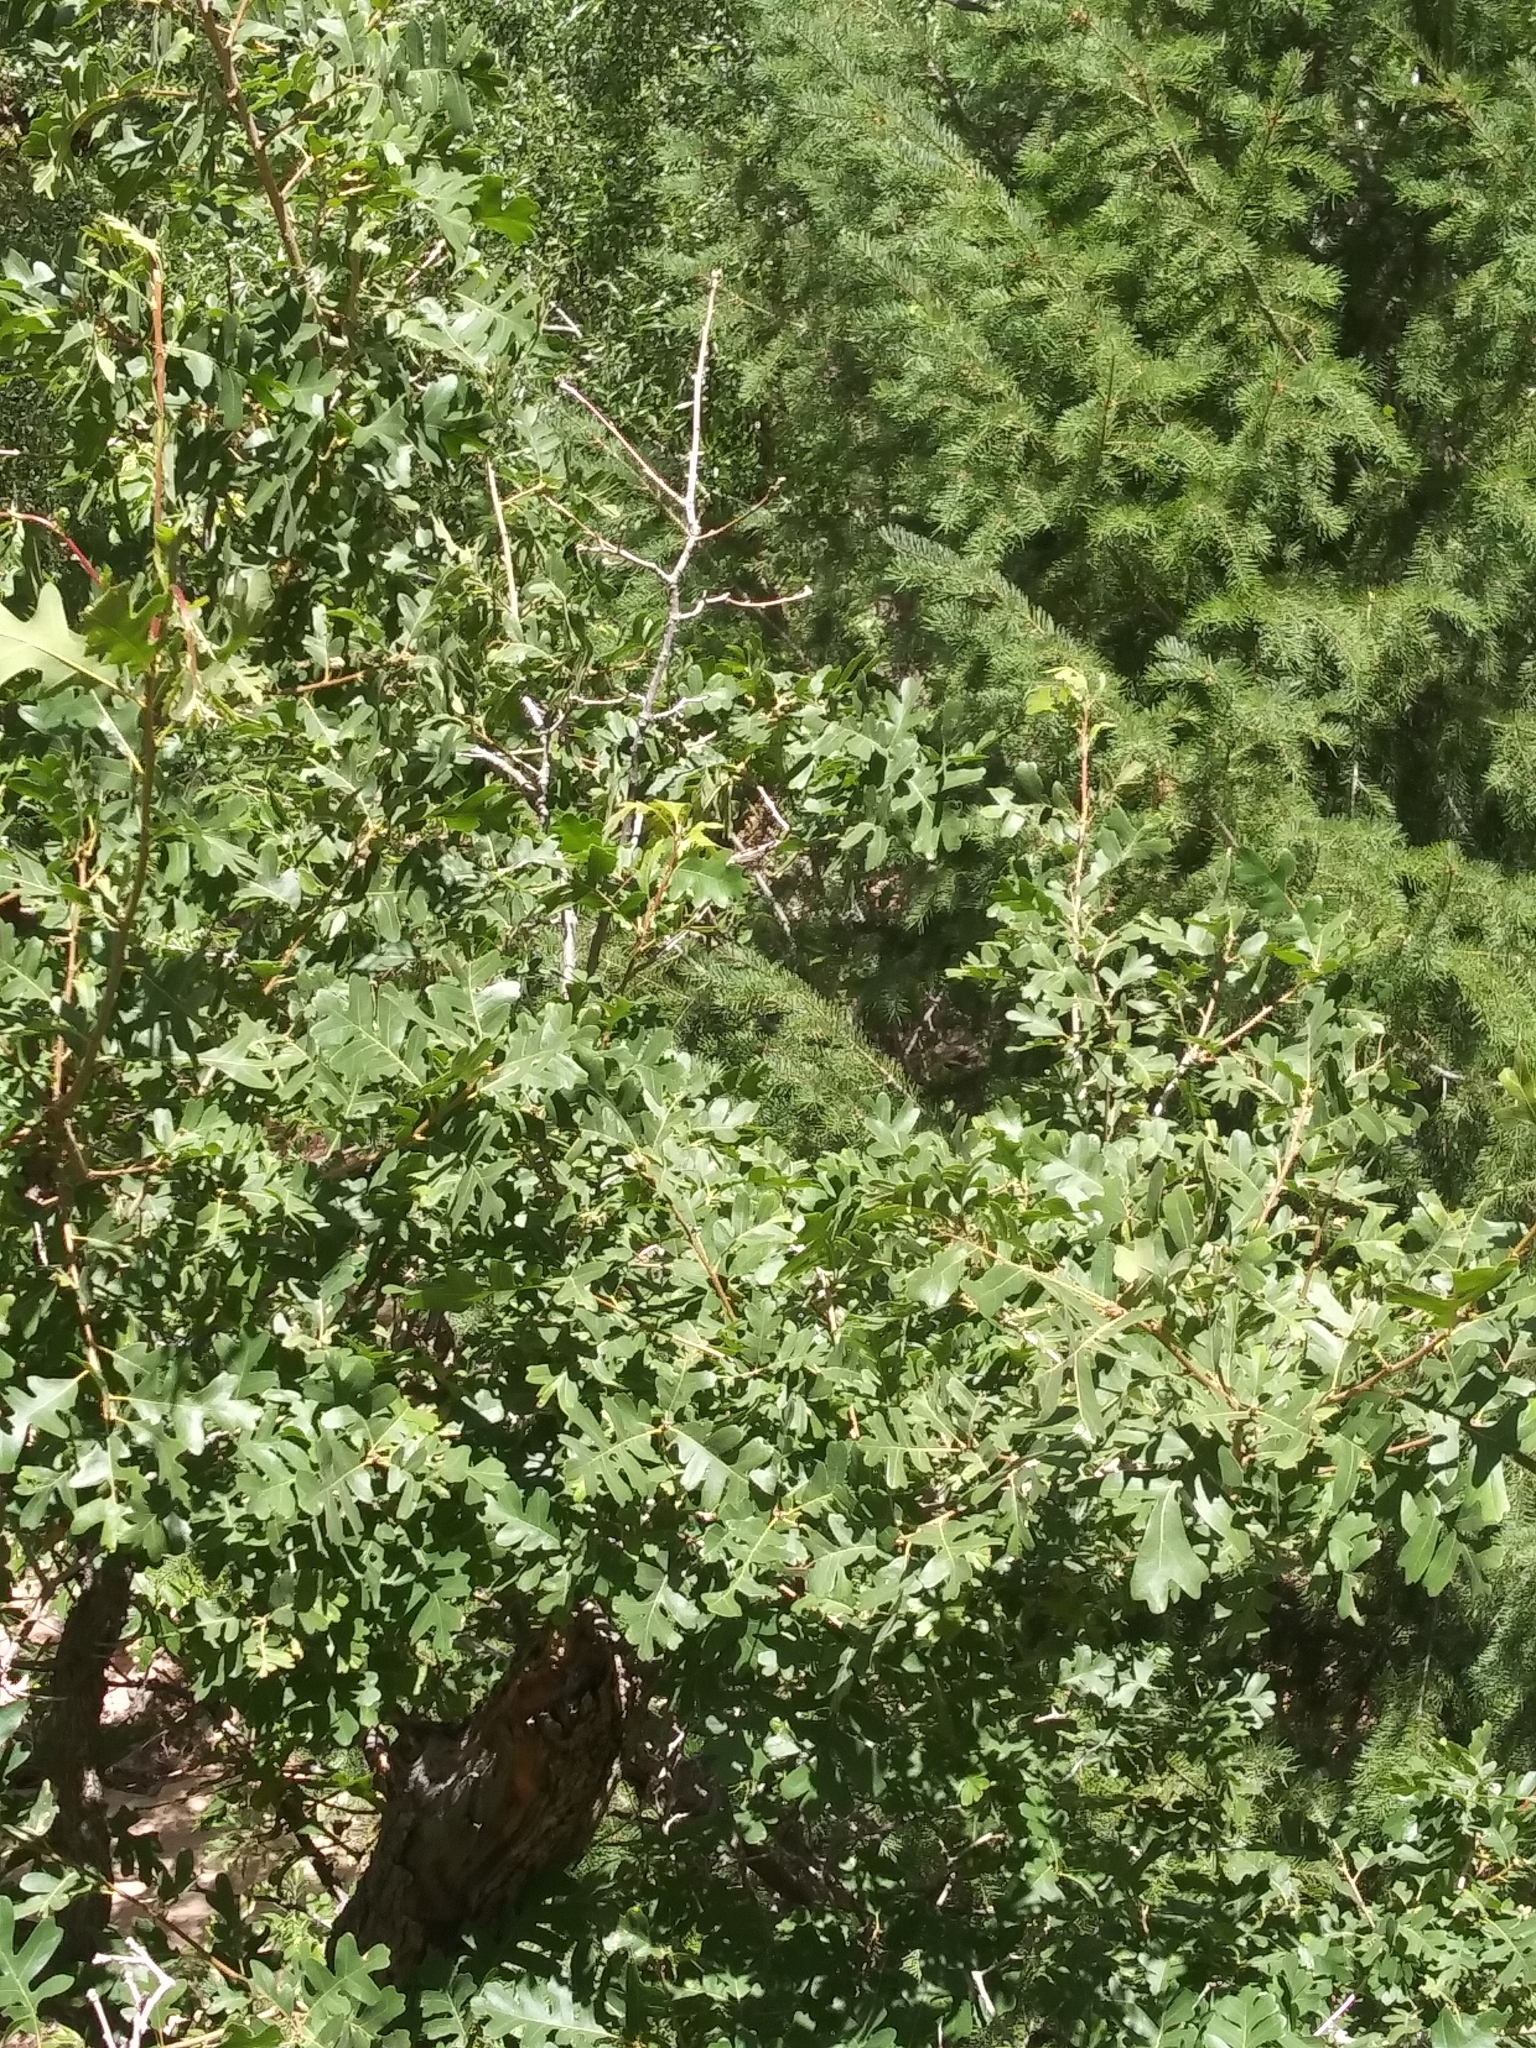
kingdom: Plantae
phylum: Tracheophyta
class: Magnoliopsida
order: Fagales
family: Fagaceae
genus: Quercus
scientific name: Quercus gambelii
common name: Gambel oak
